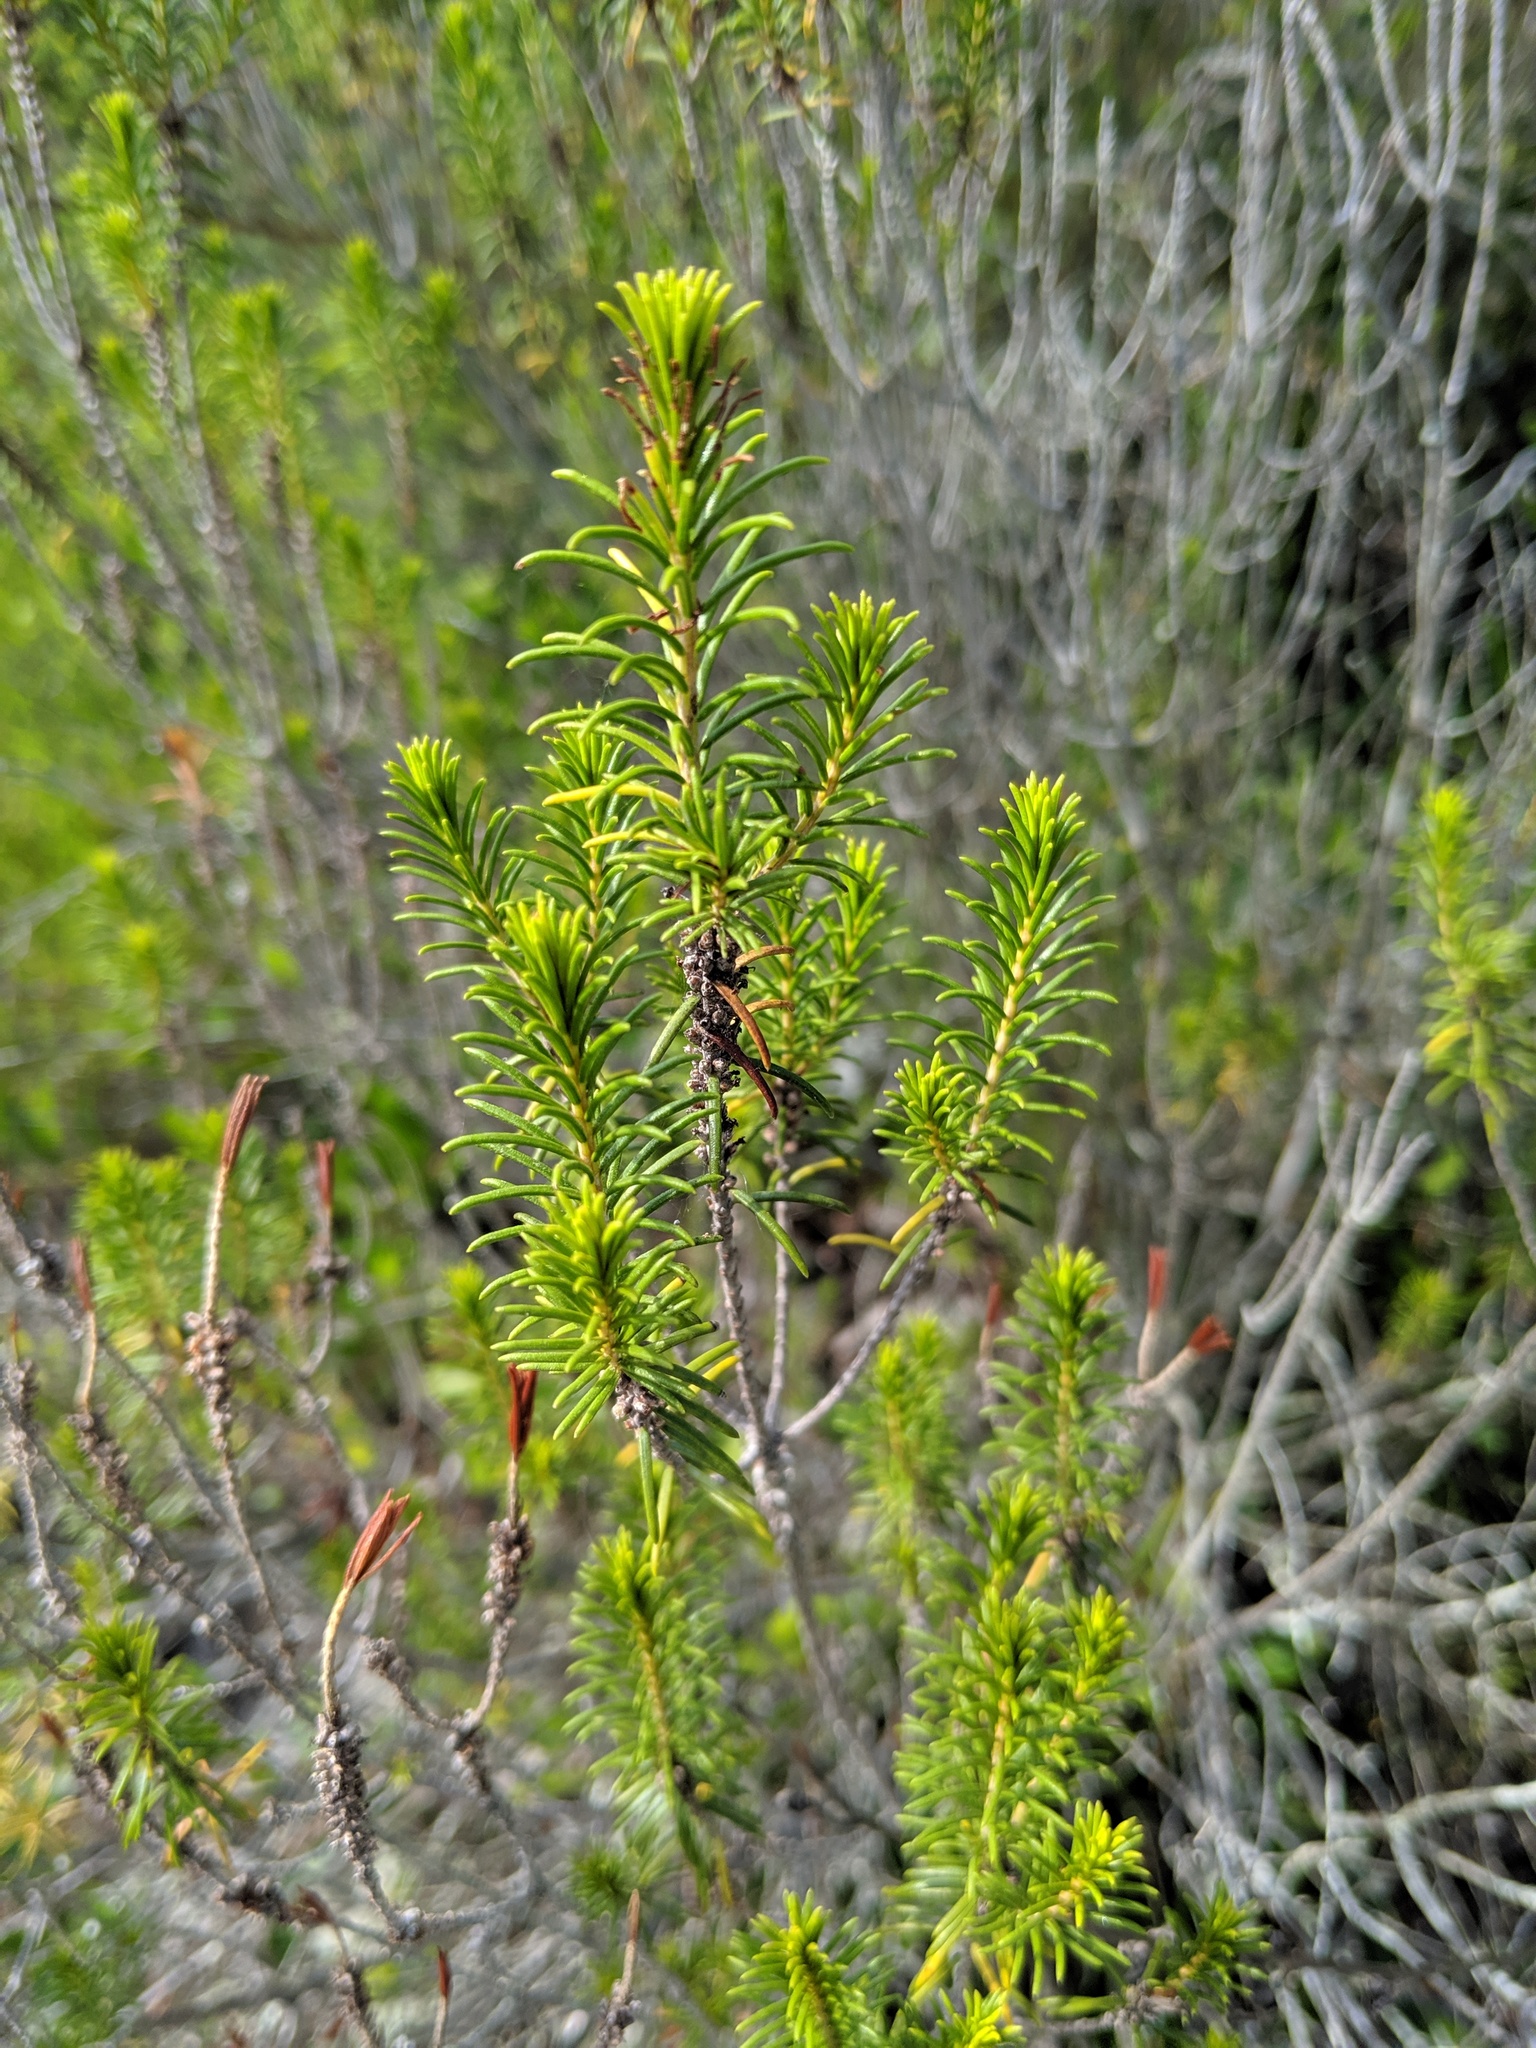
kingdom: Plantae
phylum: Tracheophyta
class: Magnoliopsida
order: Ericales
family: Ericaceae
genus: Ceratiola
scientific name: Ceratiola ericoides
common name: Sandhill-rosemary
